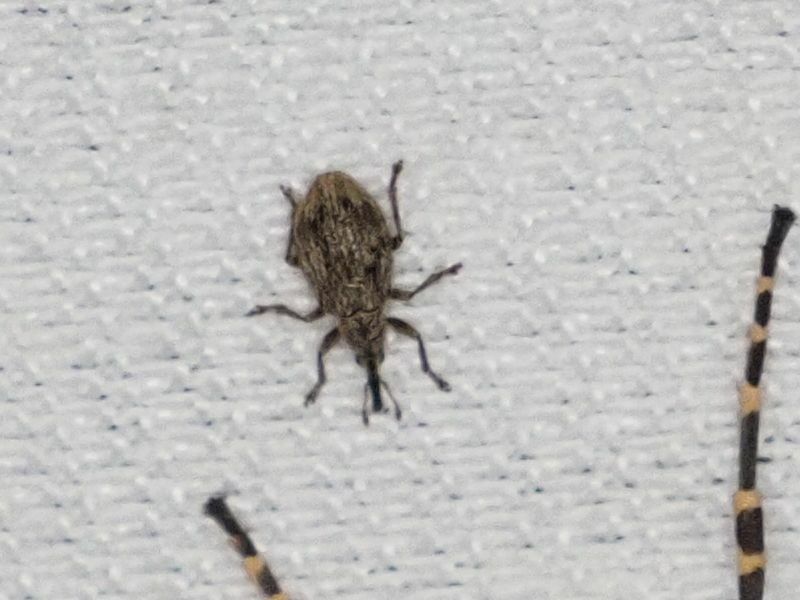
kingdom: Animalia
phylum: Arthropoda
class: Insecta
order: Coleoptera
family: Apionidae
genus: Trichopterapion
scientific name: Trichopterapion holosericeum
